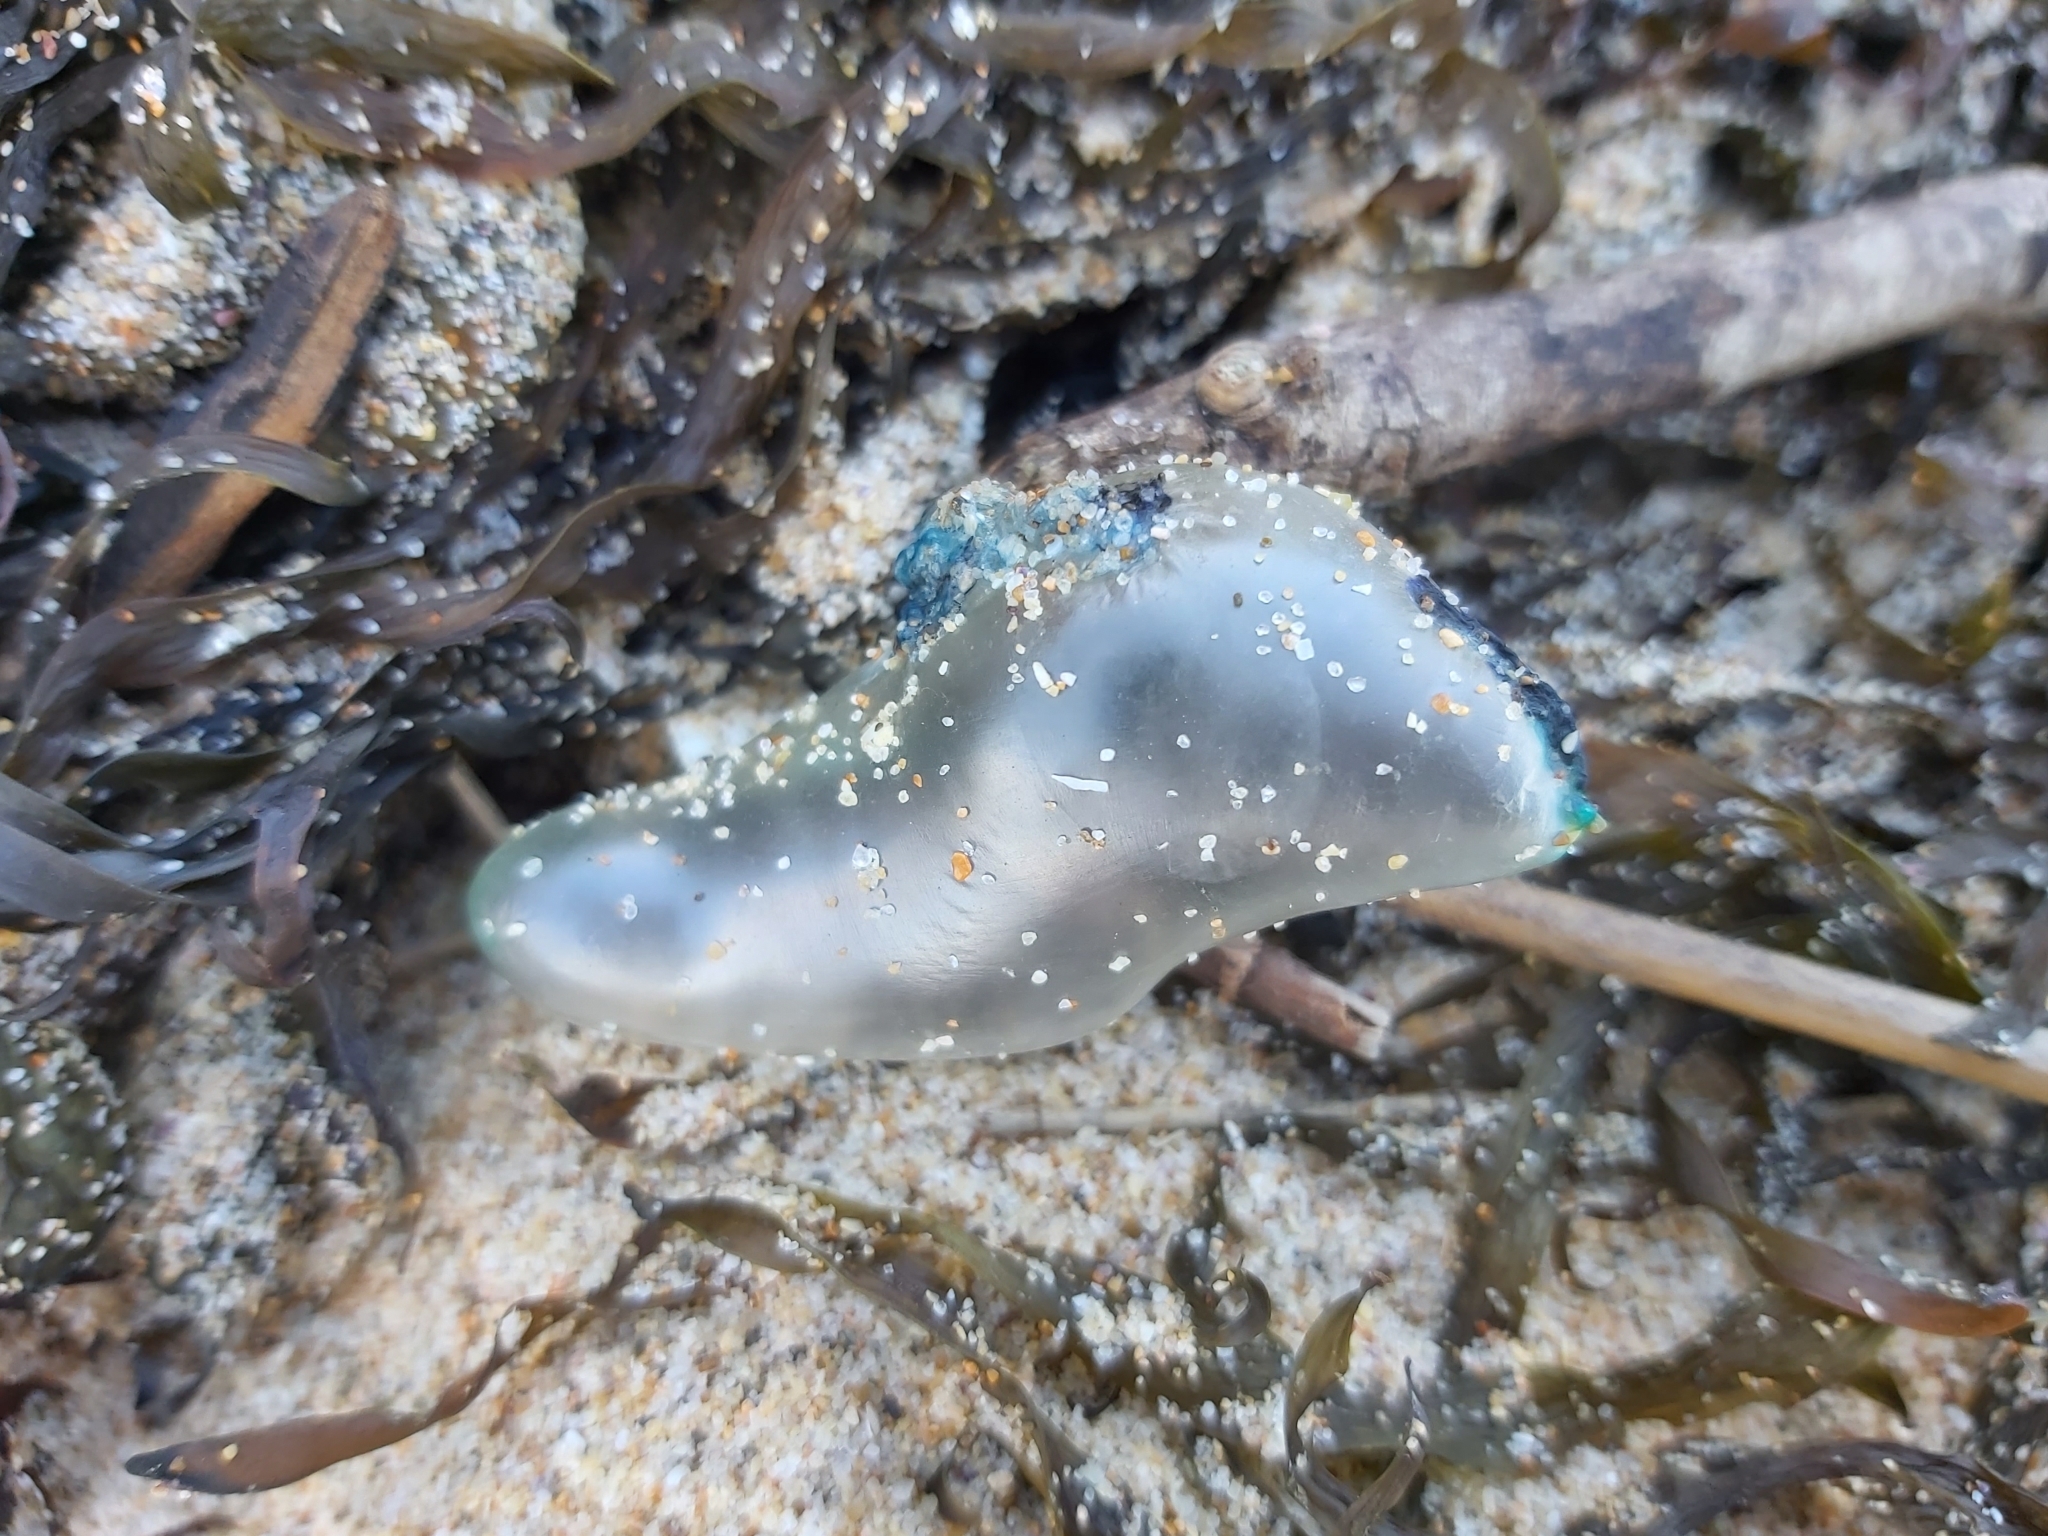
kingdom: Animalia
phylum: Cnidaria
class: Hydrozoa
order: Siphonophorae
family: Physaliidae
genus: Physalia
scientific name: Physalia physalis
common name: Portuguese man-of-war
